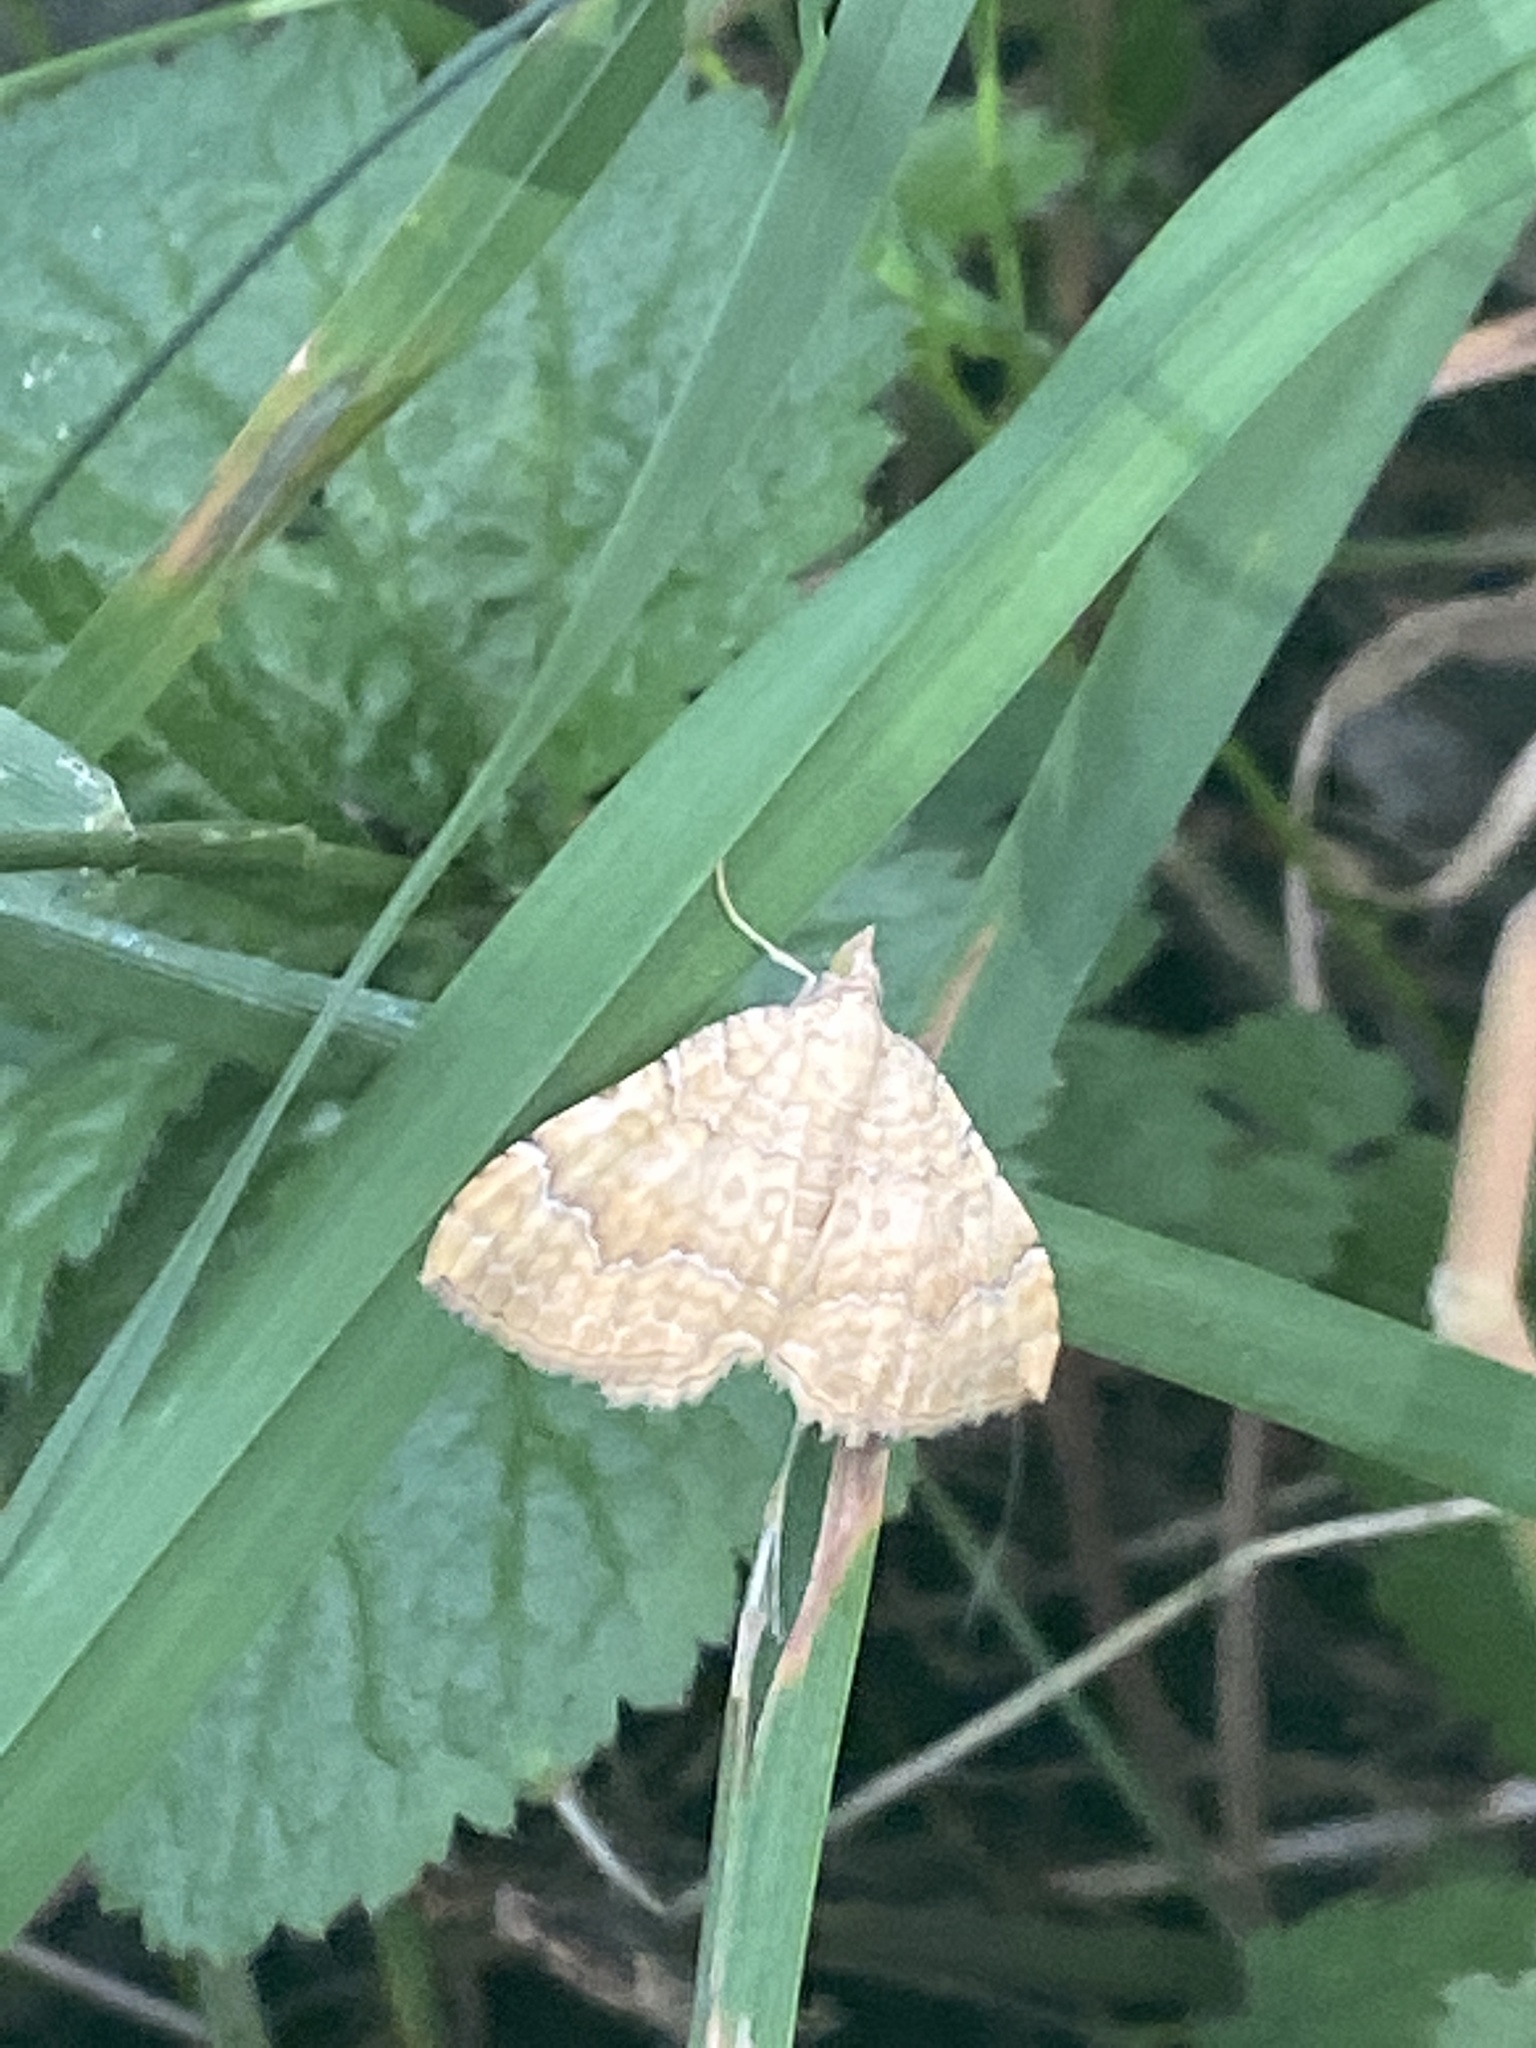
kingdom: Animalia
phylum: Arthropoda
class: Insecta
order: Lepidoptera
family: Geometridae
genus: Camptogramma
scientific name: Camptogramma bilineata
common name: Yellow shell
